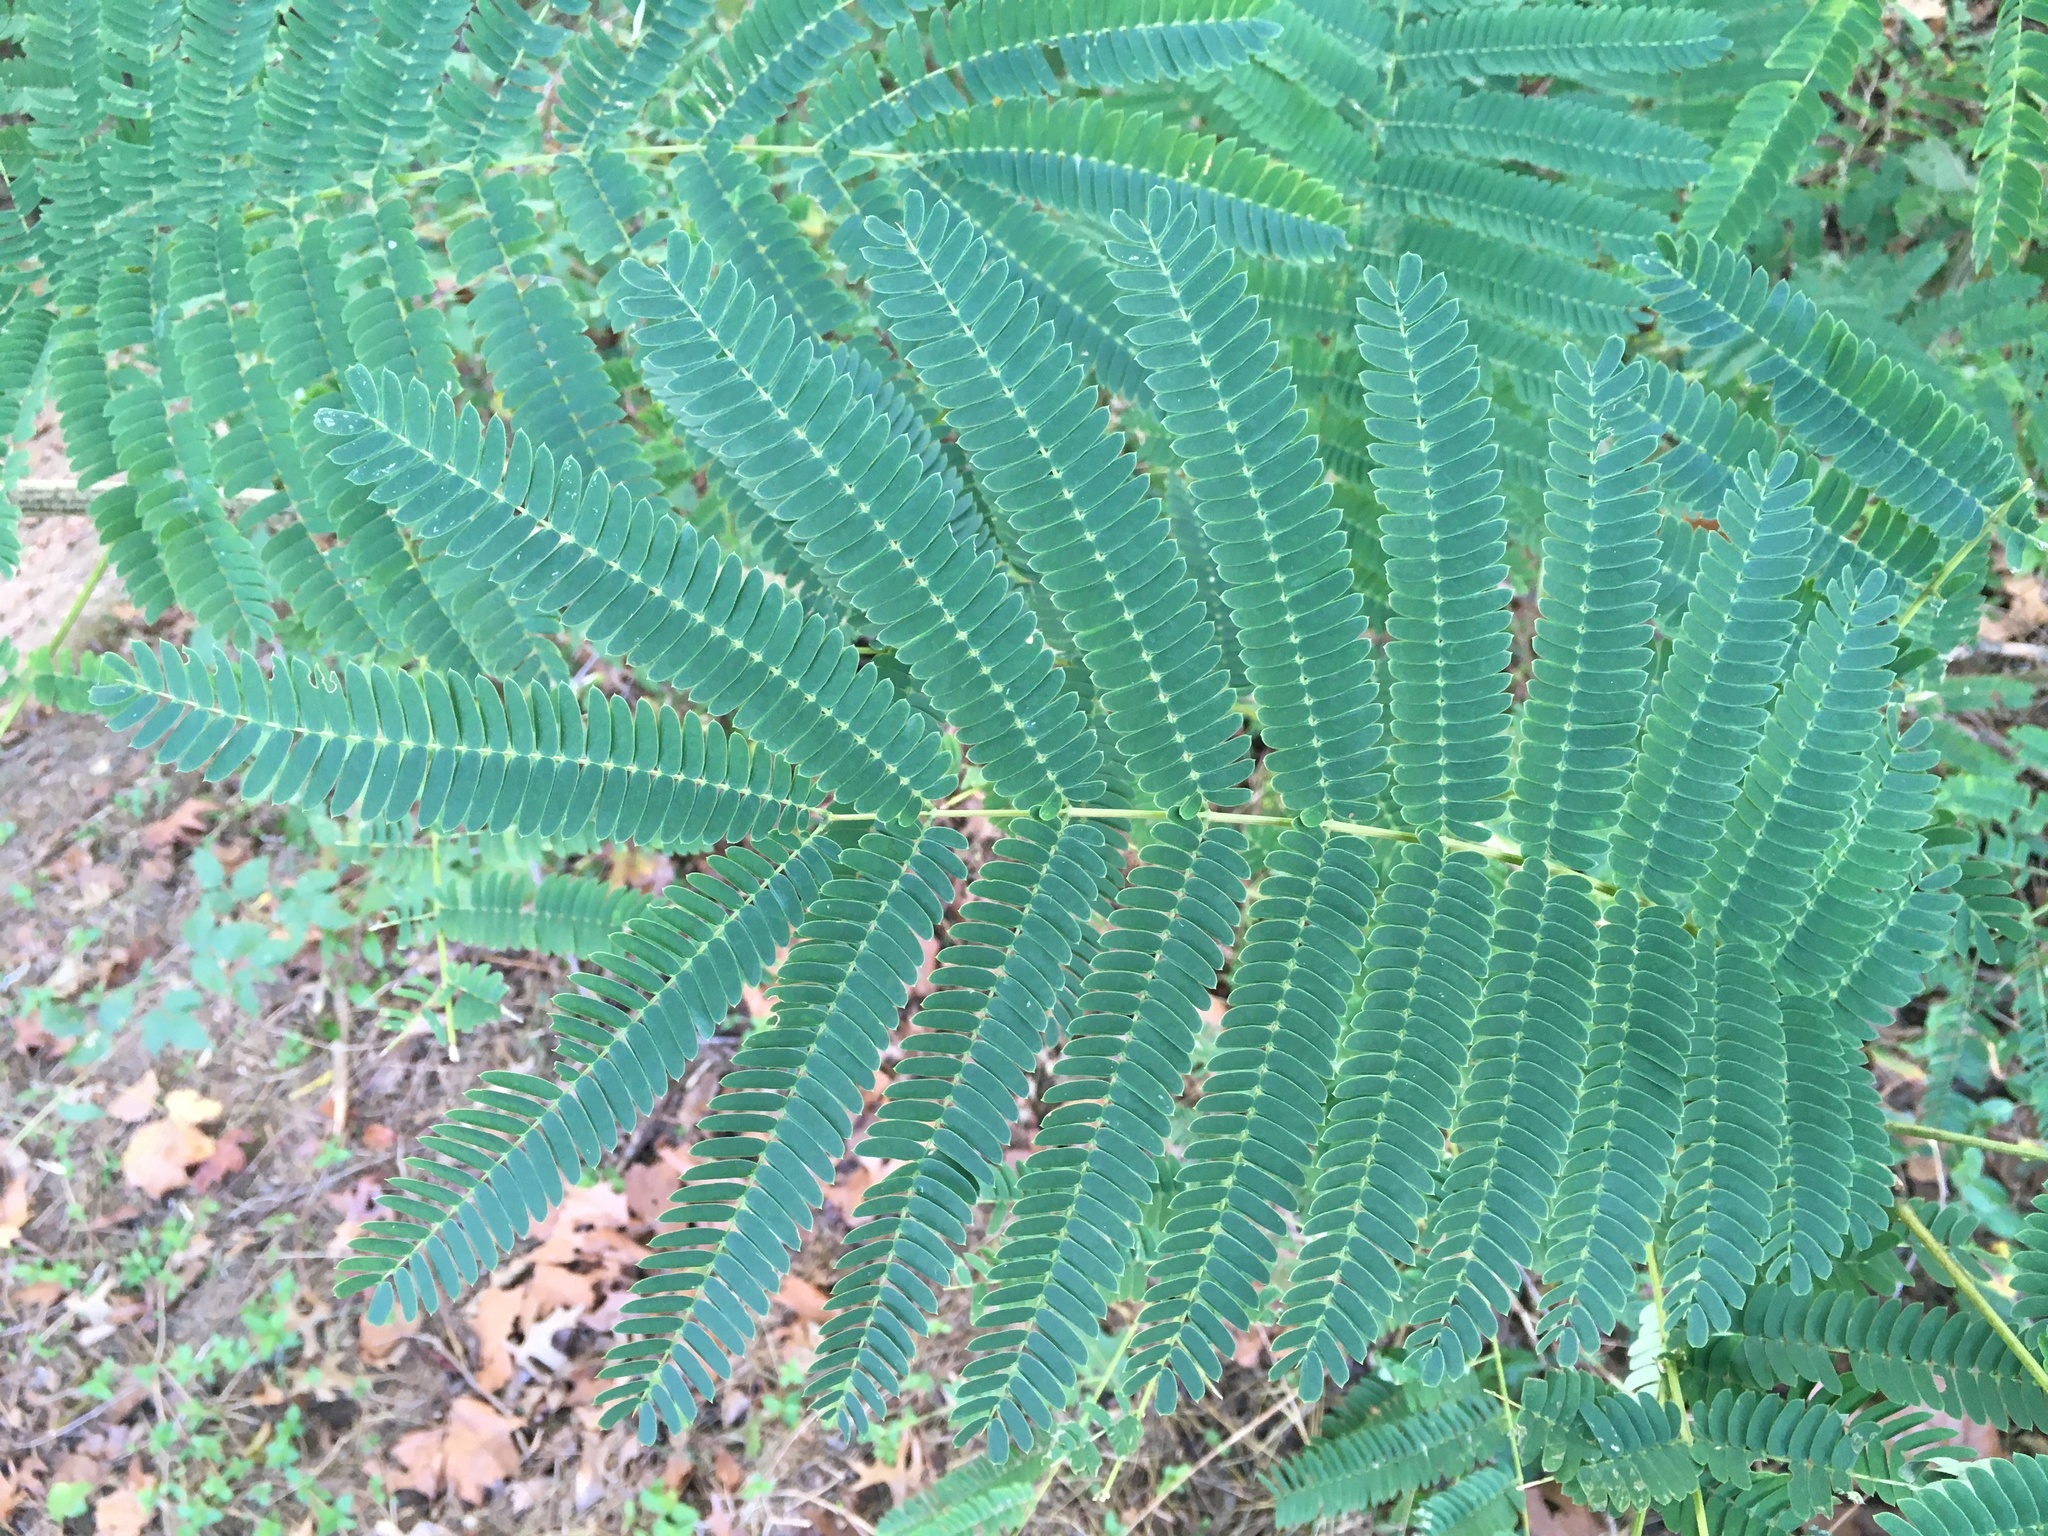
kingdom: Plantae
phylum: Tracheophyta
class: Magnoliopsida
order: Fabales
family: Fabaceae
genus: Albizia
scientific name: Albizia julibrissin
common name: Silktree
